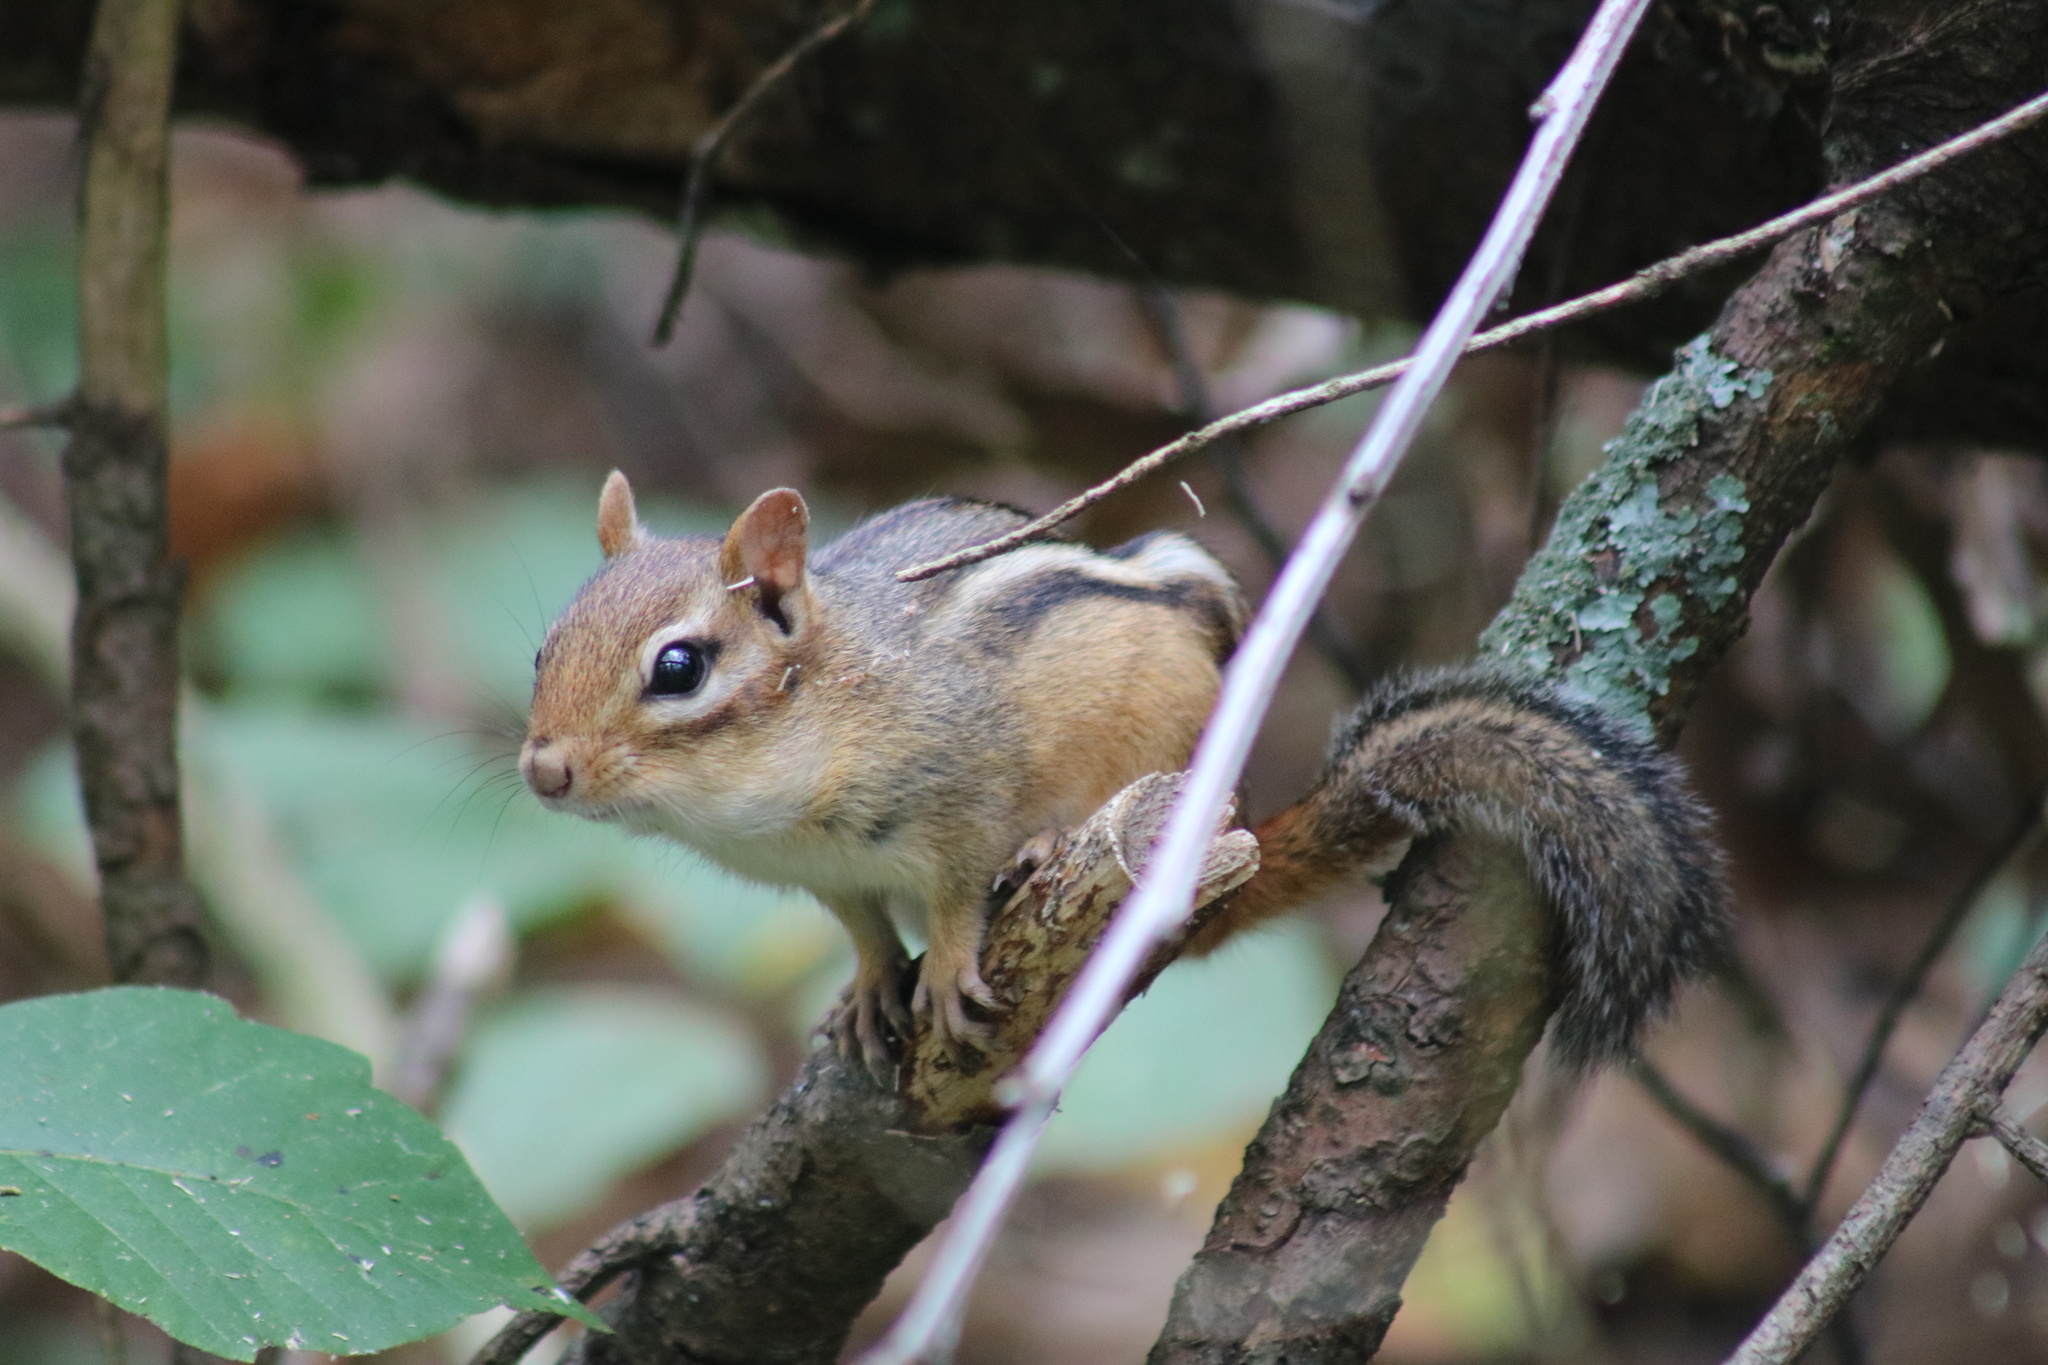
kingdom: Animalia
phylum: Chordata
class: Mammalia
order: Rodentia
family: Sciuridae
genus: Tamias
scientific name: Tamias striatus
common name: Eastern chipmunk
